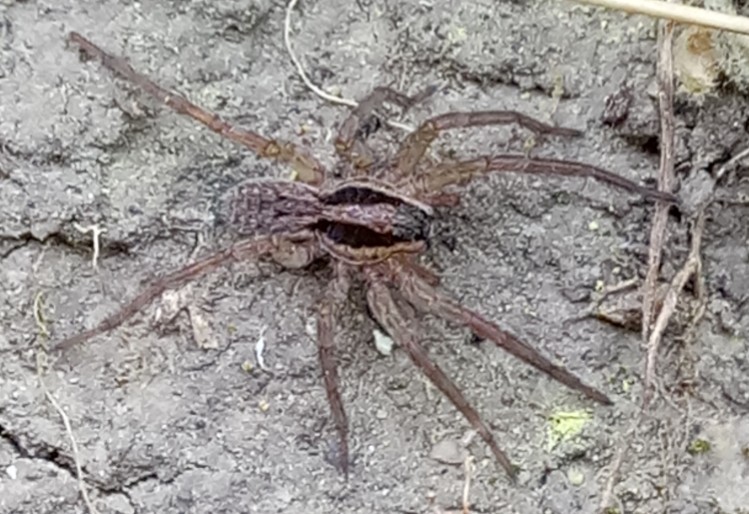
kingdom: Animalia
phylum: Arthropoda
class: Arachnida
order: Araneae
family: Lycosidae
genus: Hogna
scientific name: Hogna radiata
